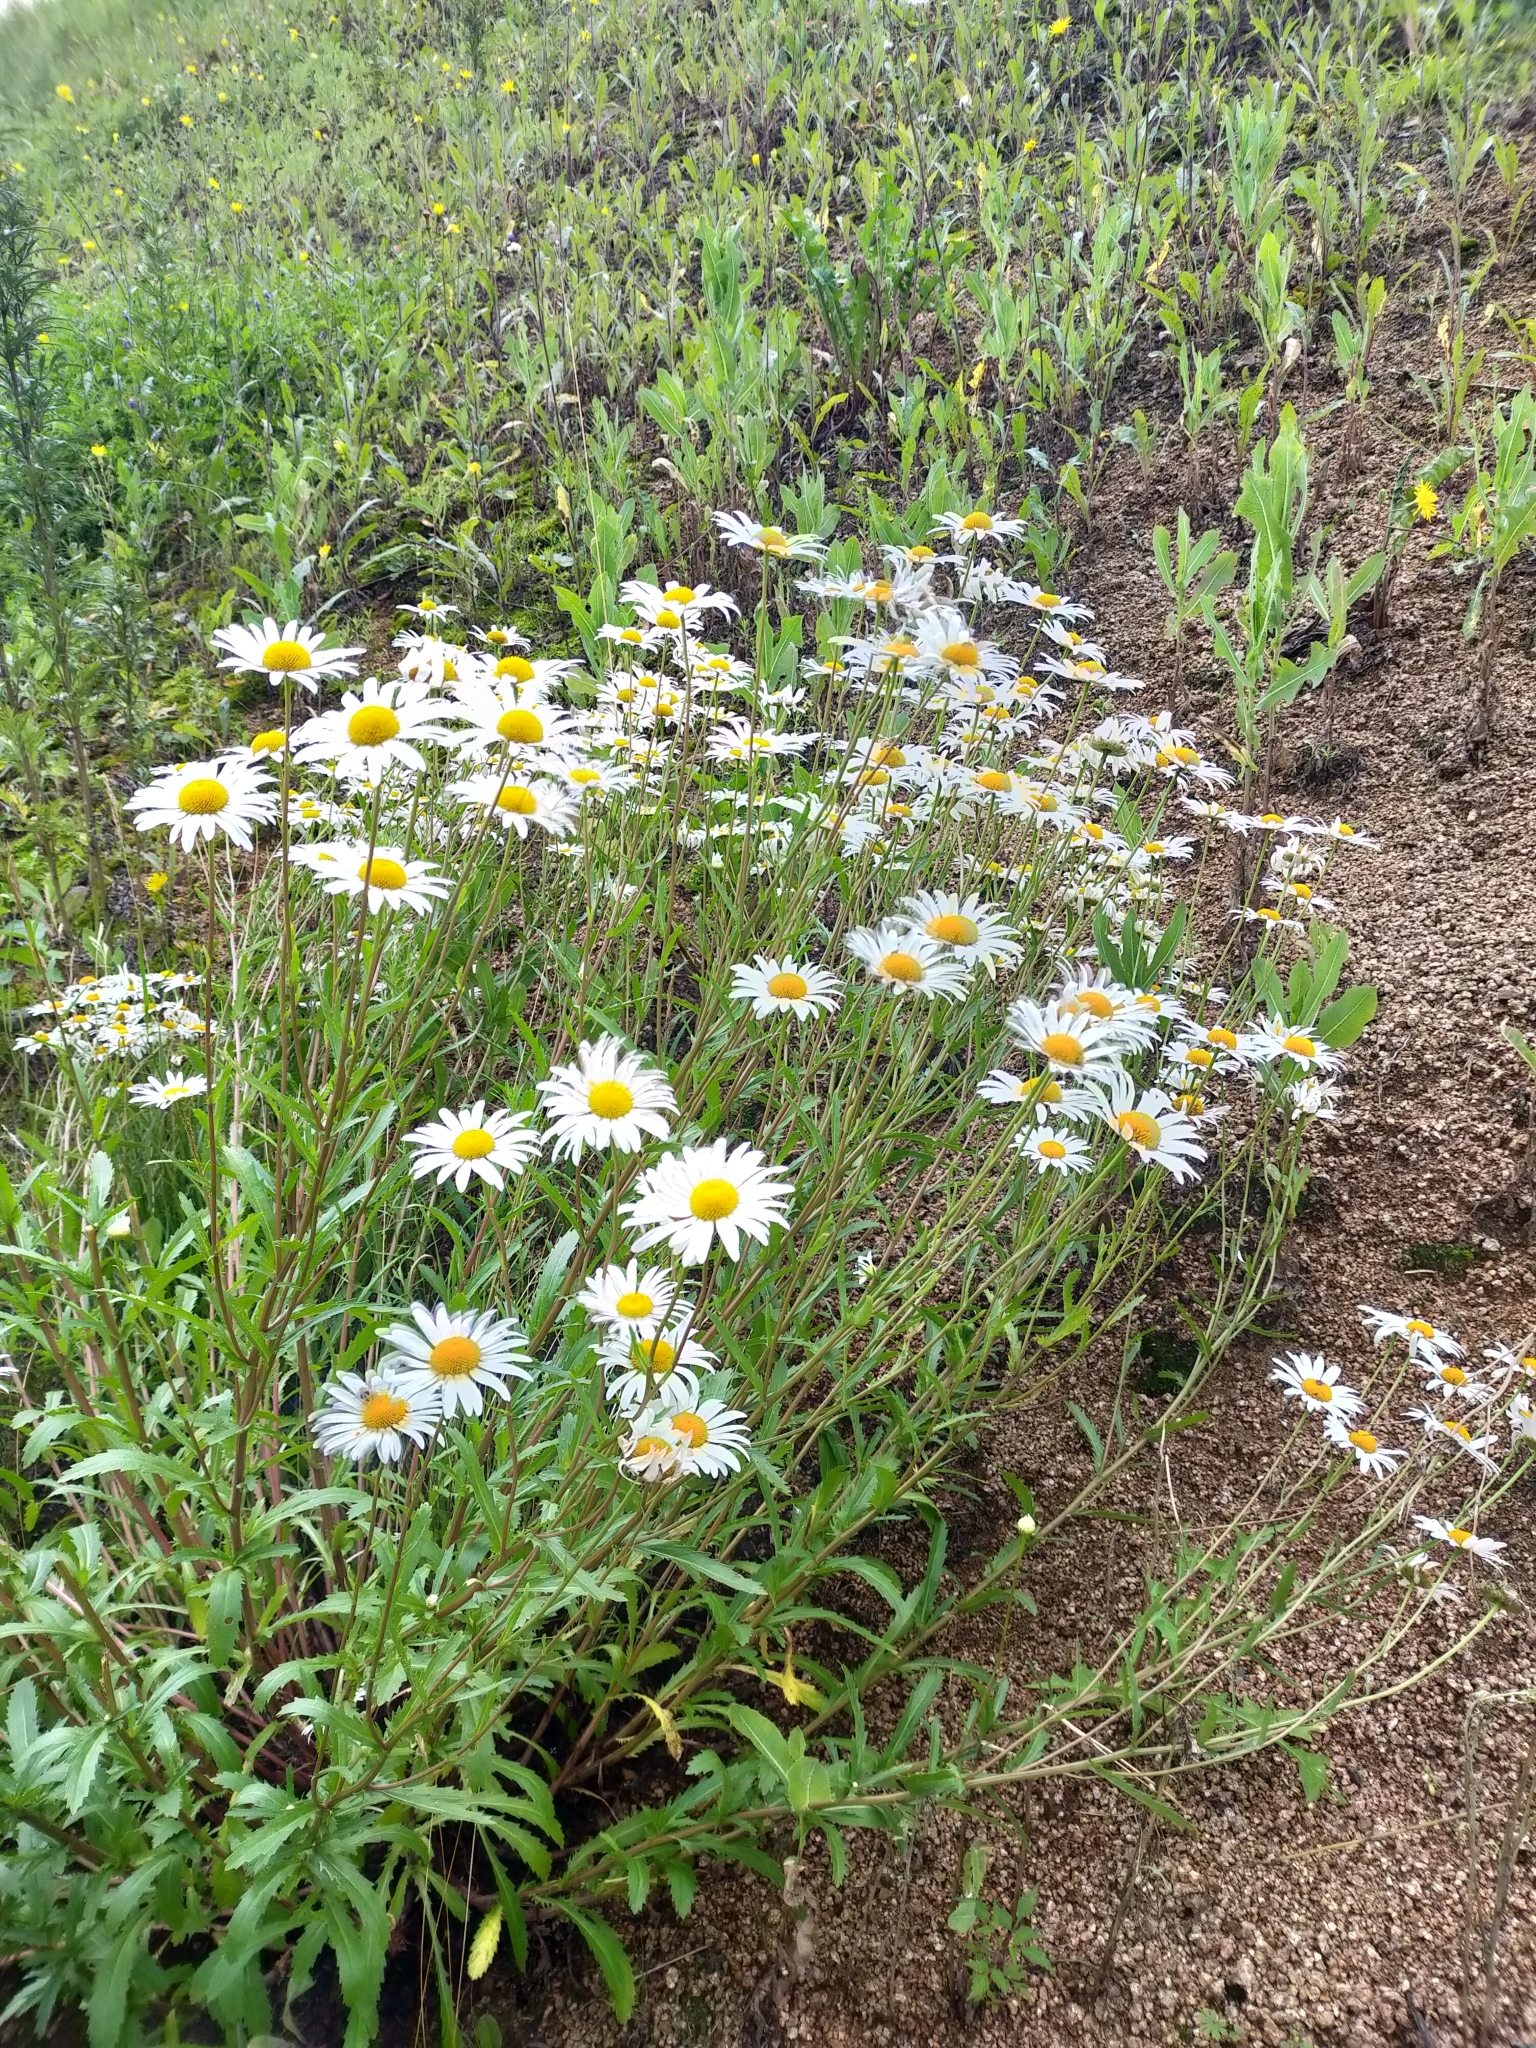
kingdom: Plantae
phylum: Tracheophyta
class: Magnoliopsida
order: Asterales
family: Asteraceae
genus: Leucanthemum
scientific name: Leucanthemum vulgare
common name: Oxeye daisy
